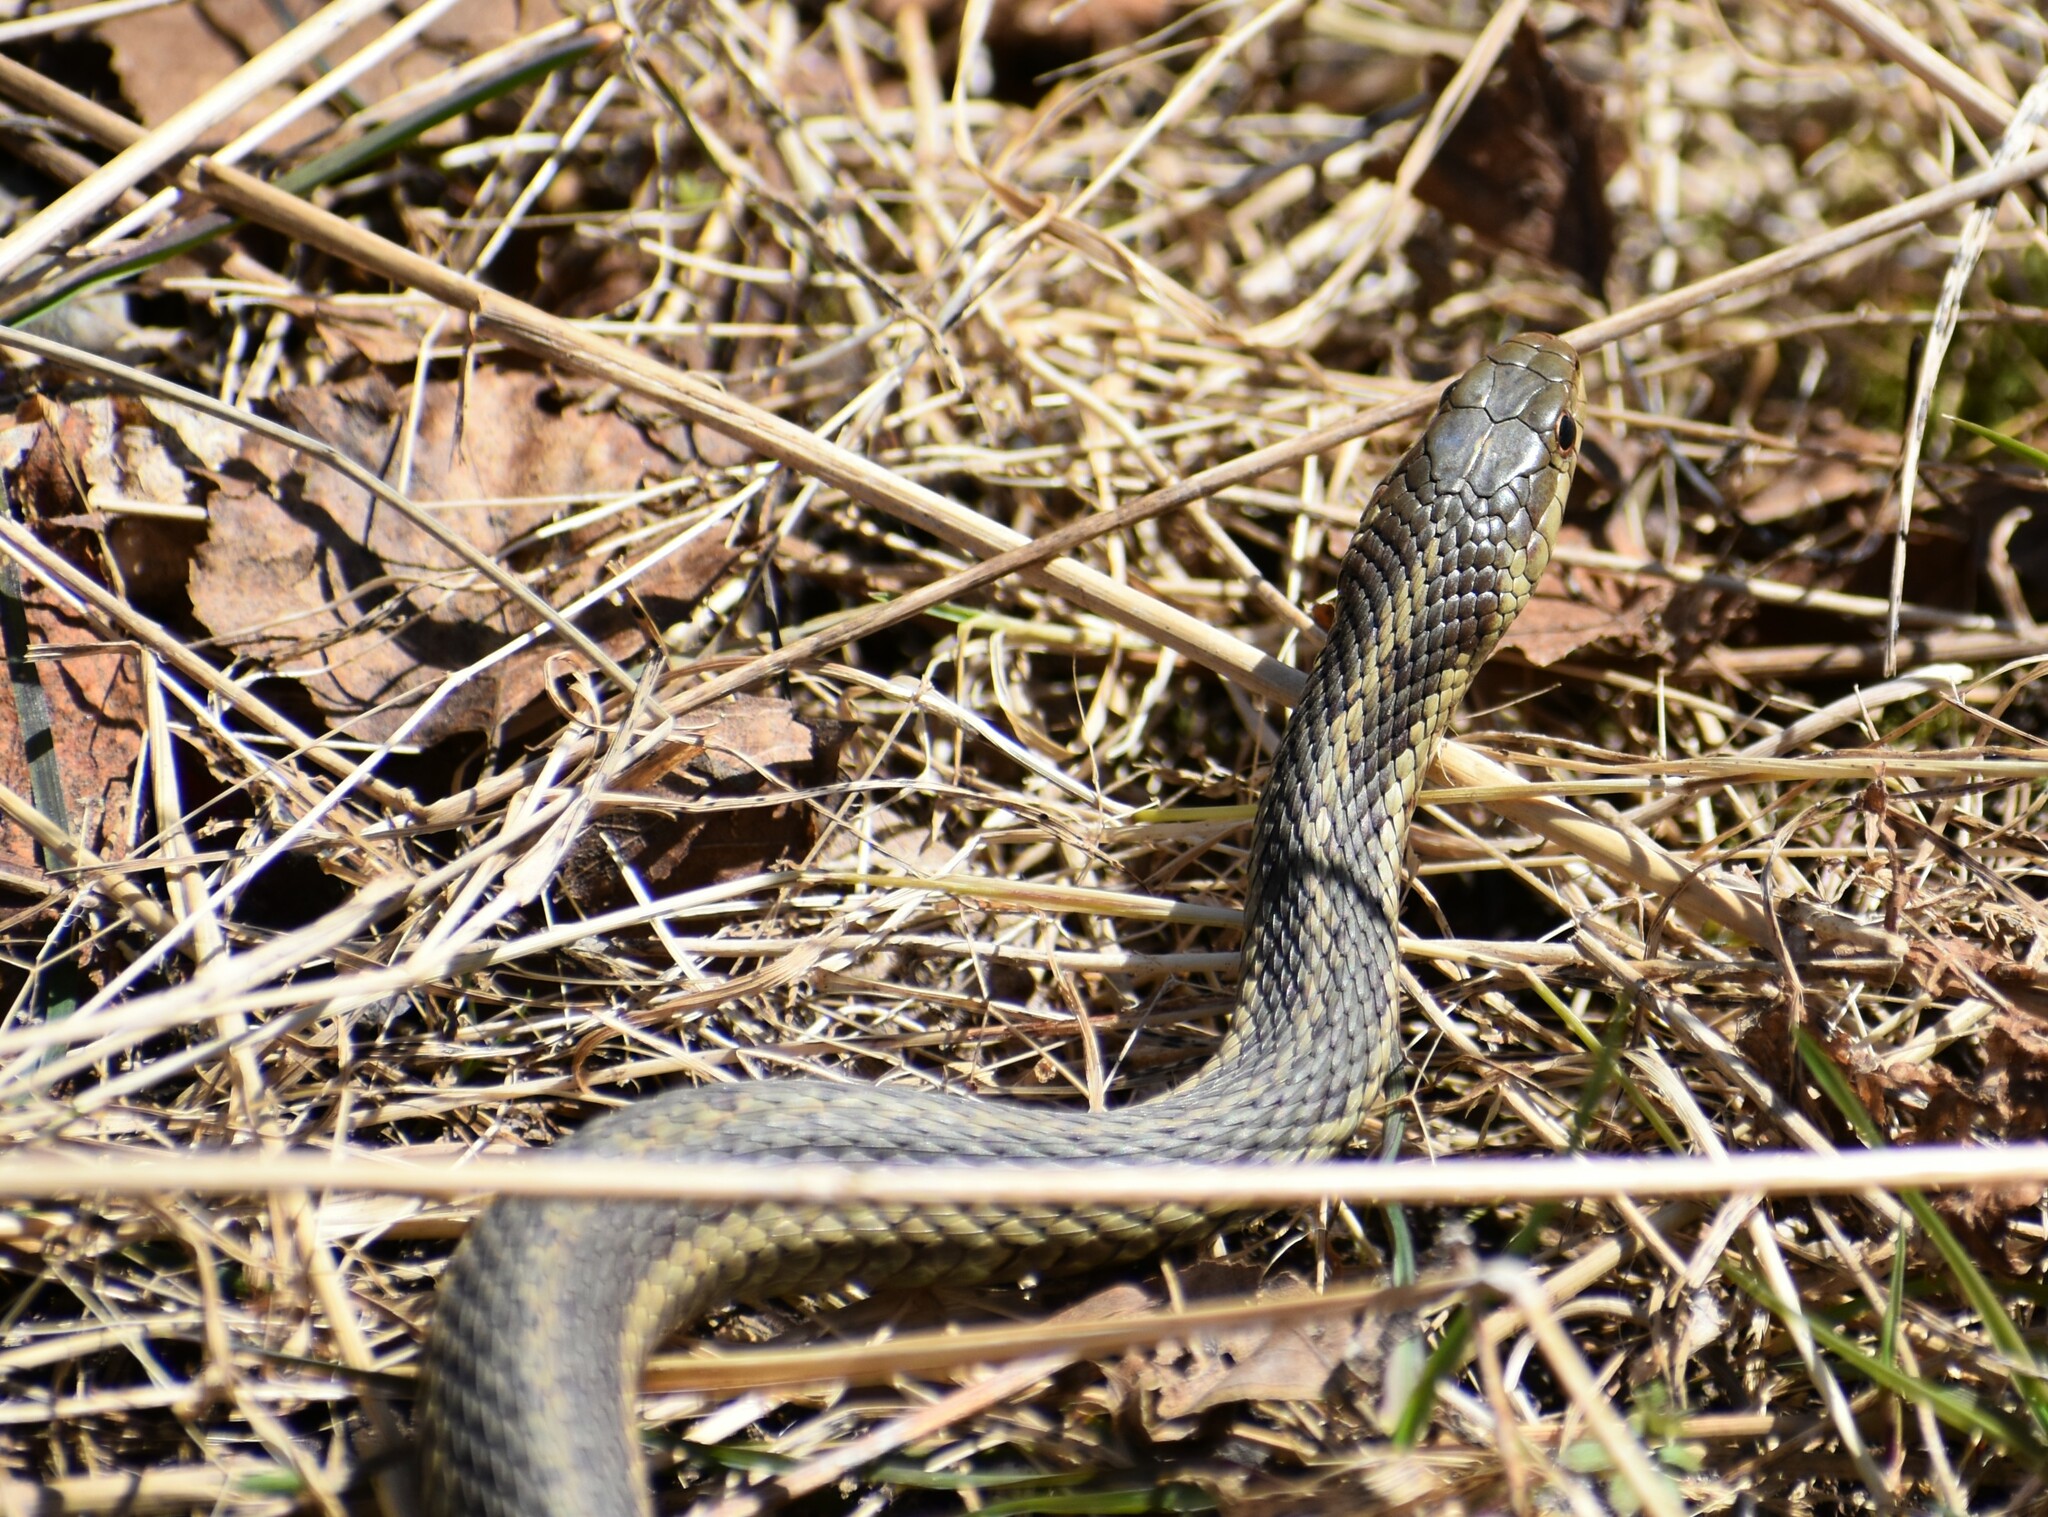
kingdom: Animalia
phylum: Chordata
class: Squamata
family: Colubridae
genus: Thamnophis
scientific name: Thamnophis sirtalis
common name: Common garter snake
